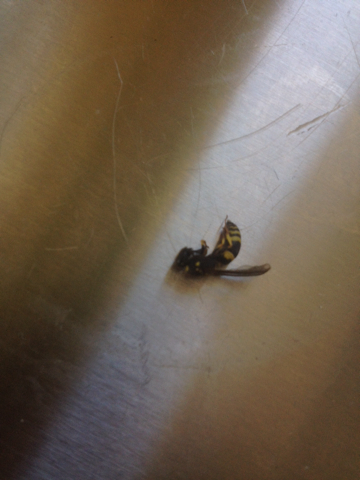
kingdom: Animalia
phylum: Arthropoda
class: Insecta
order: Hymenoptera
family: Vespidae
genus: Ancistrocerus
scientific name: Ancistrocerus gazella
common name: European tube wasp
